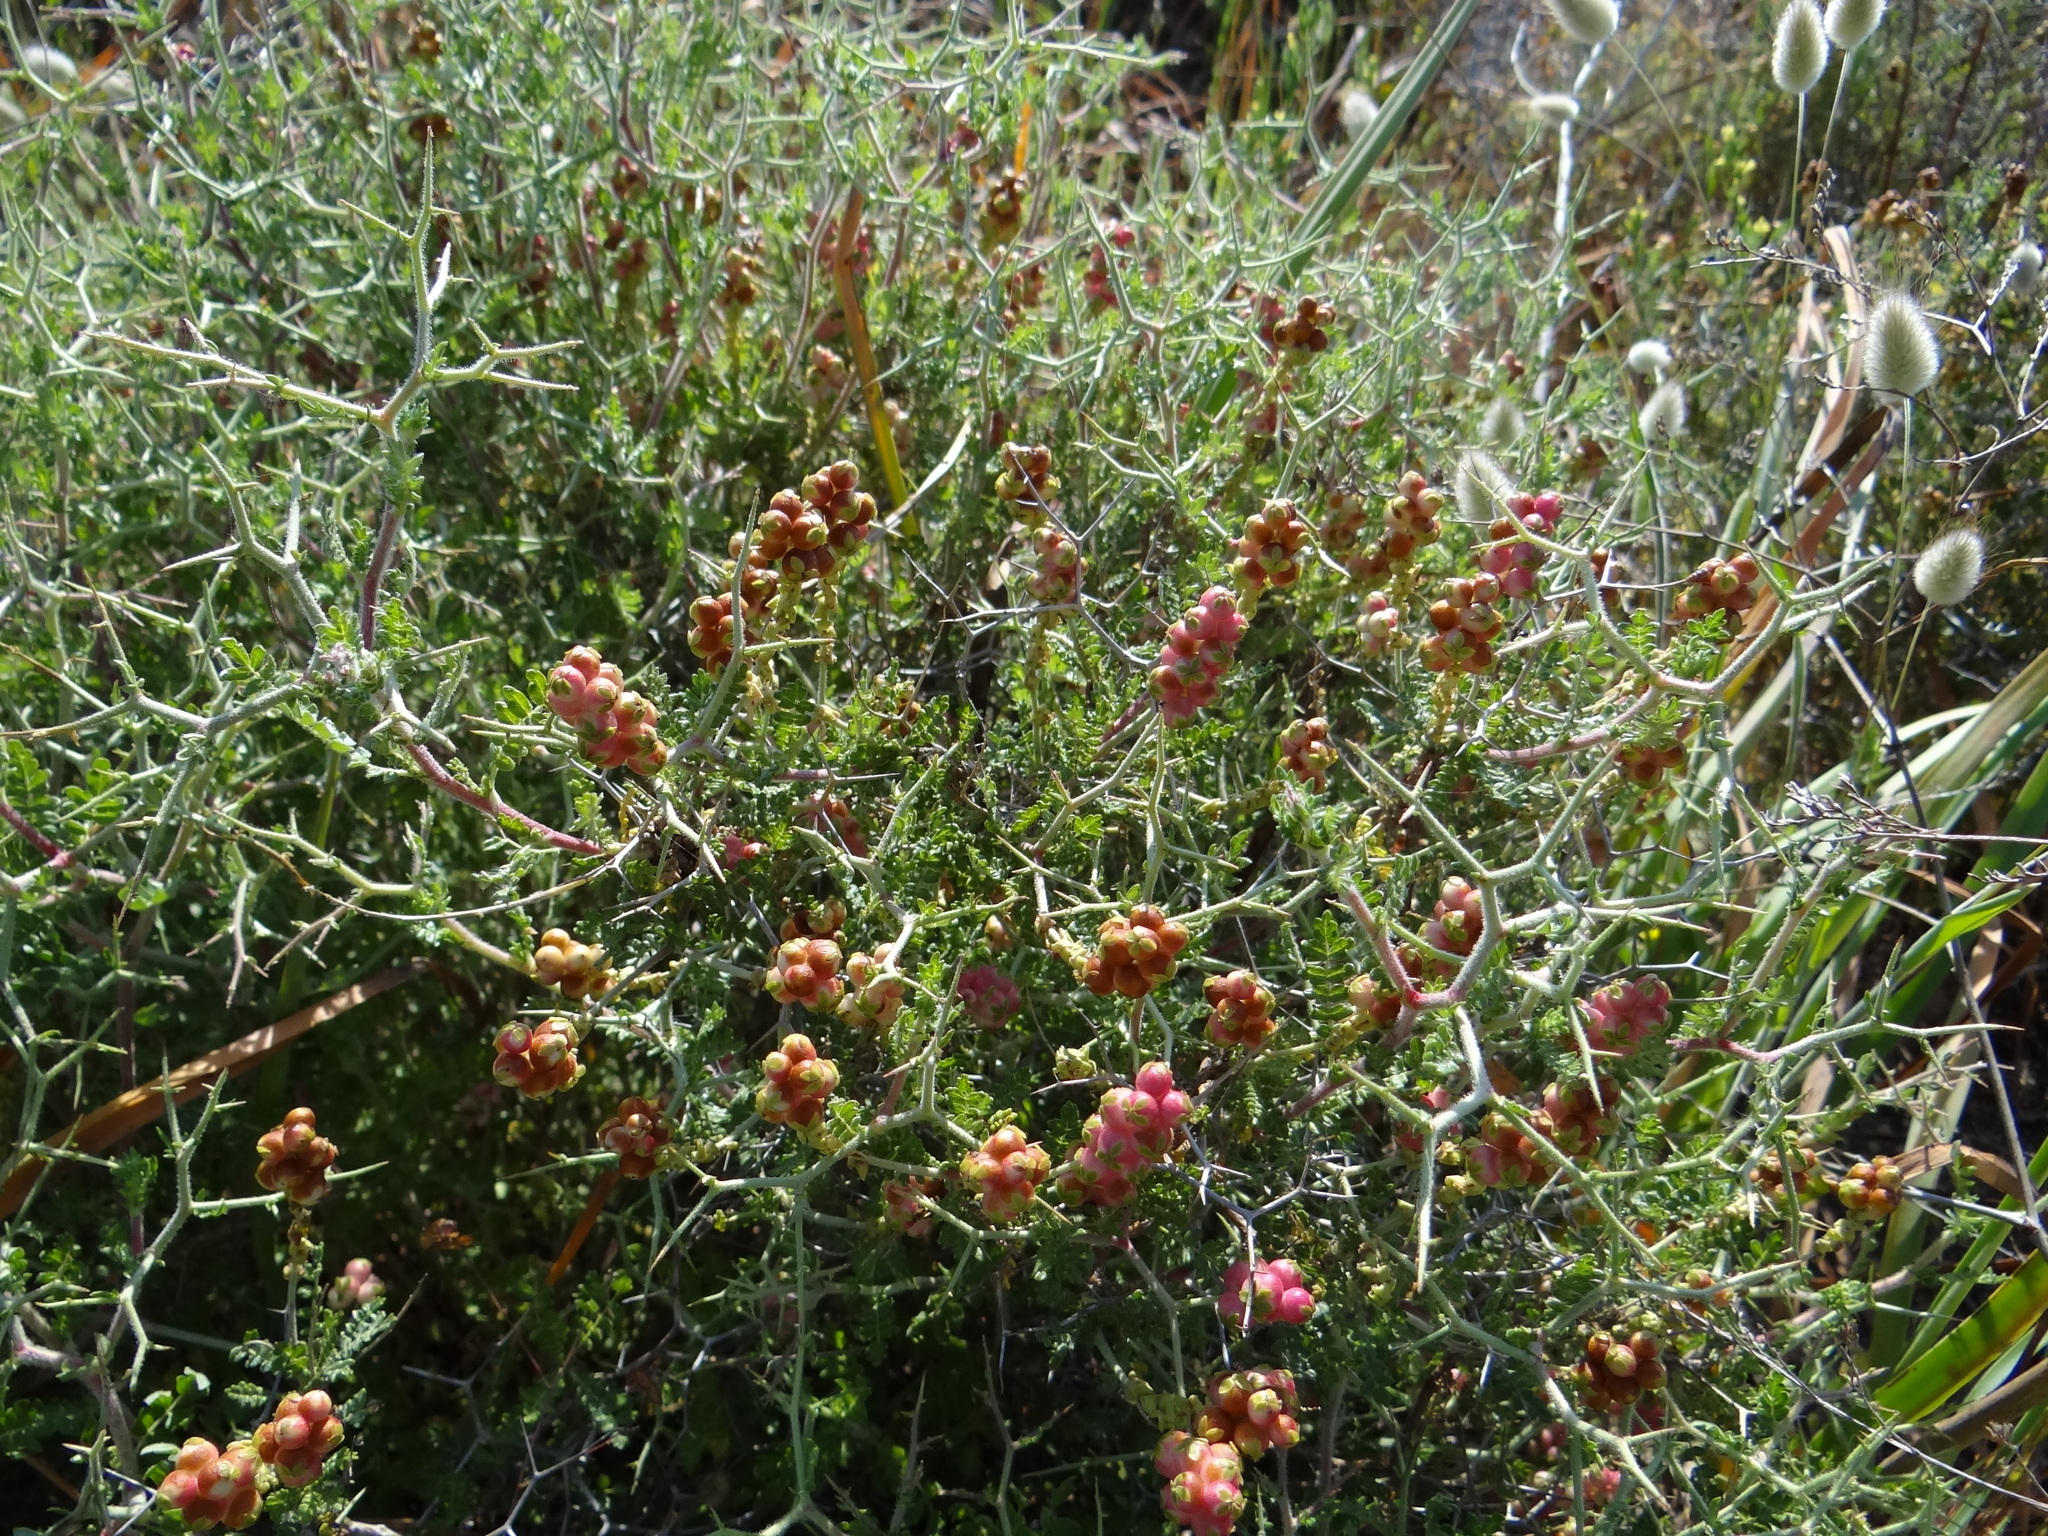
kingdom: Plantae
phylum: Tracheophyta
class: Magnoliopsida
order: Rosales
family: Rosaceae
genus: Sarcopoterium
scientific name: Sarcopoterium spinosum
